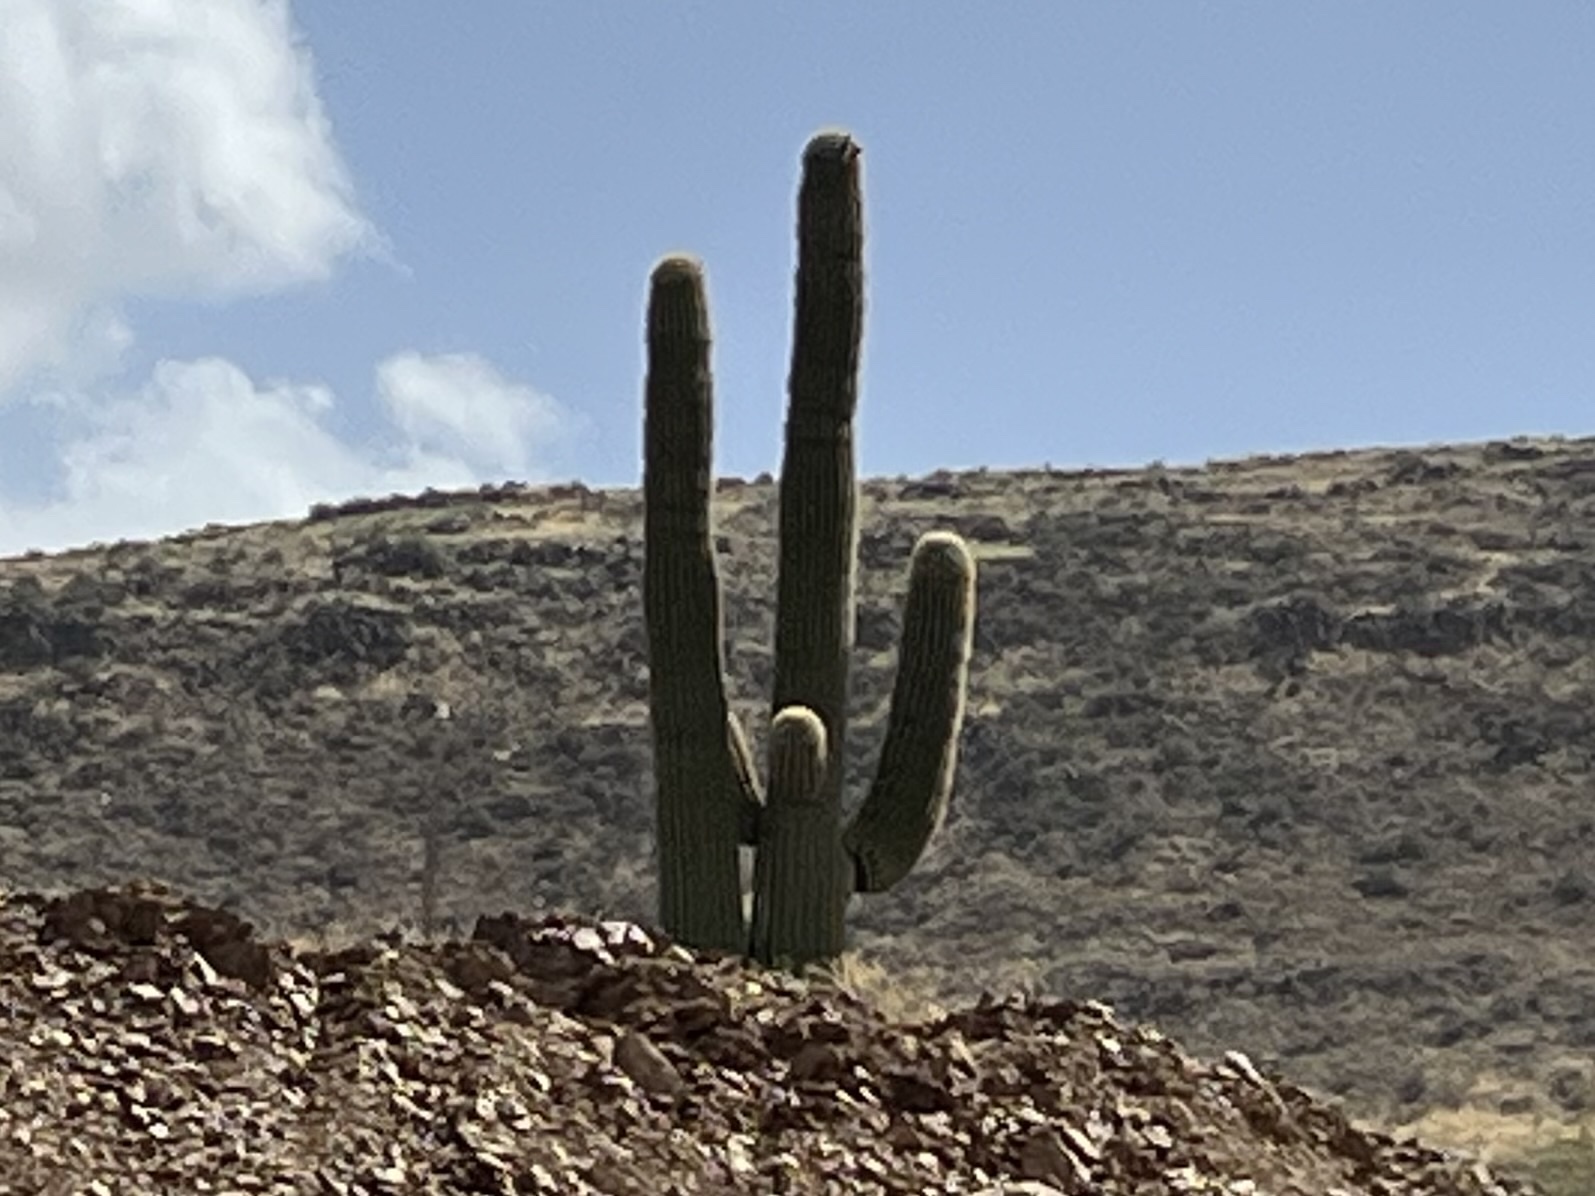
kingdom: Plantae
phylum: Tracheophyta
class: Magnoliopsida
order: Caryophyllales
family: Cactaceae
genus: Carnegiea
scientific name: Carnegiea gigantea
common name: Saguaro
